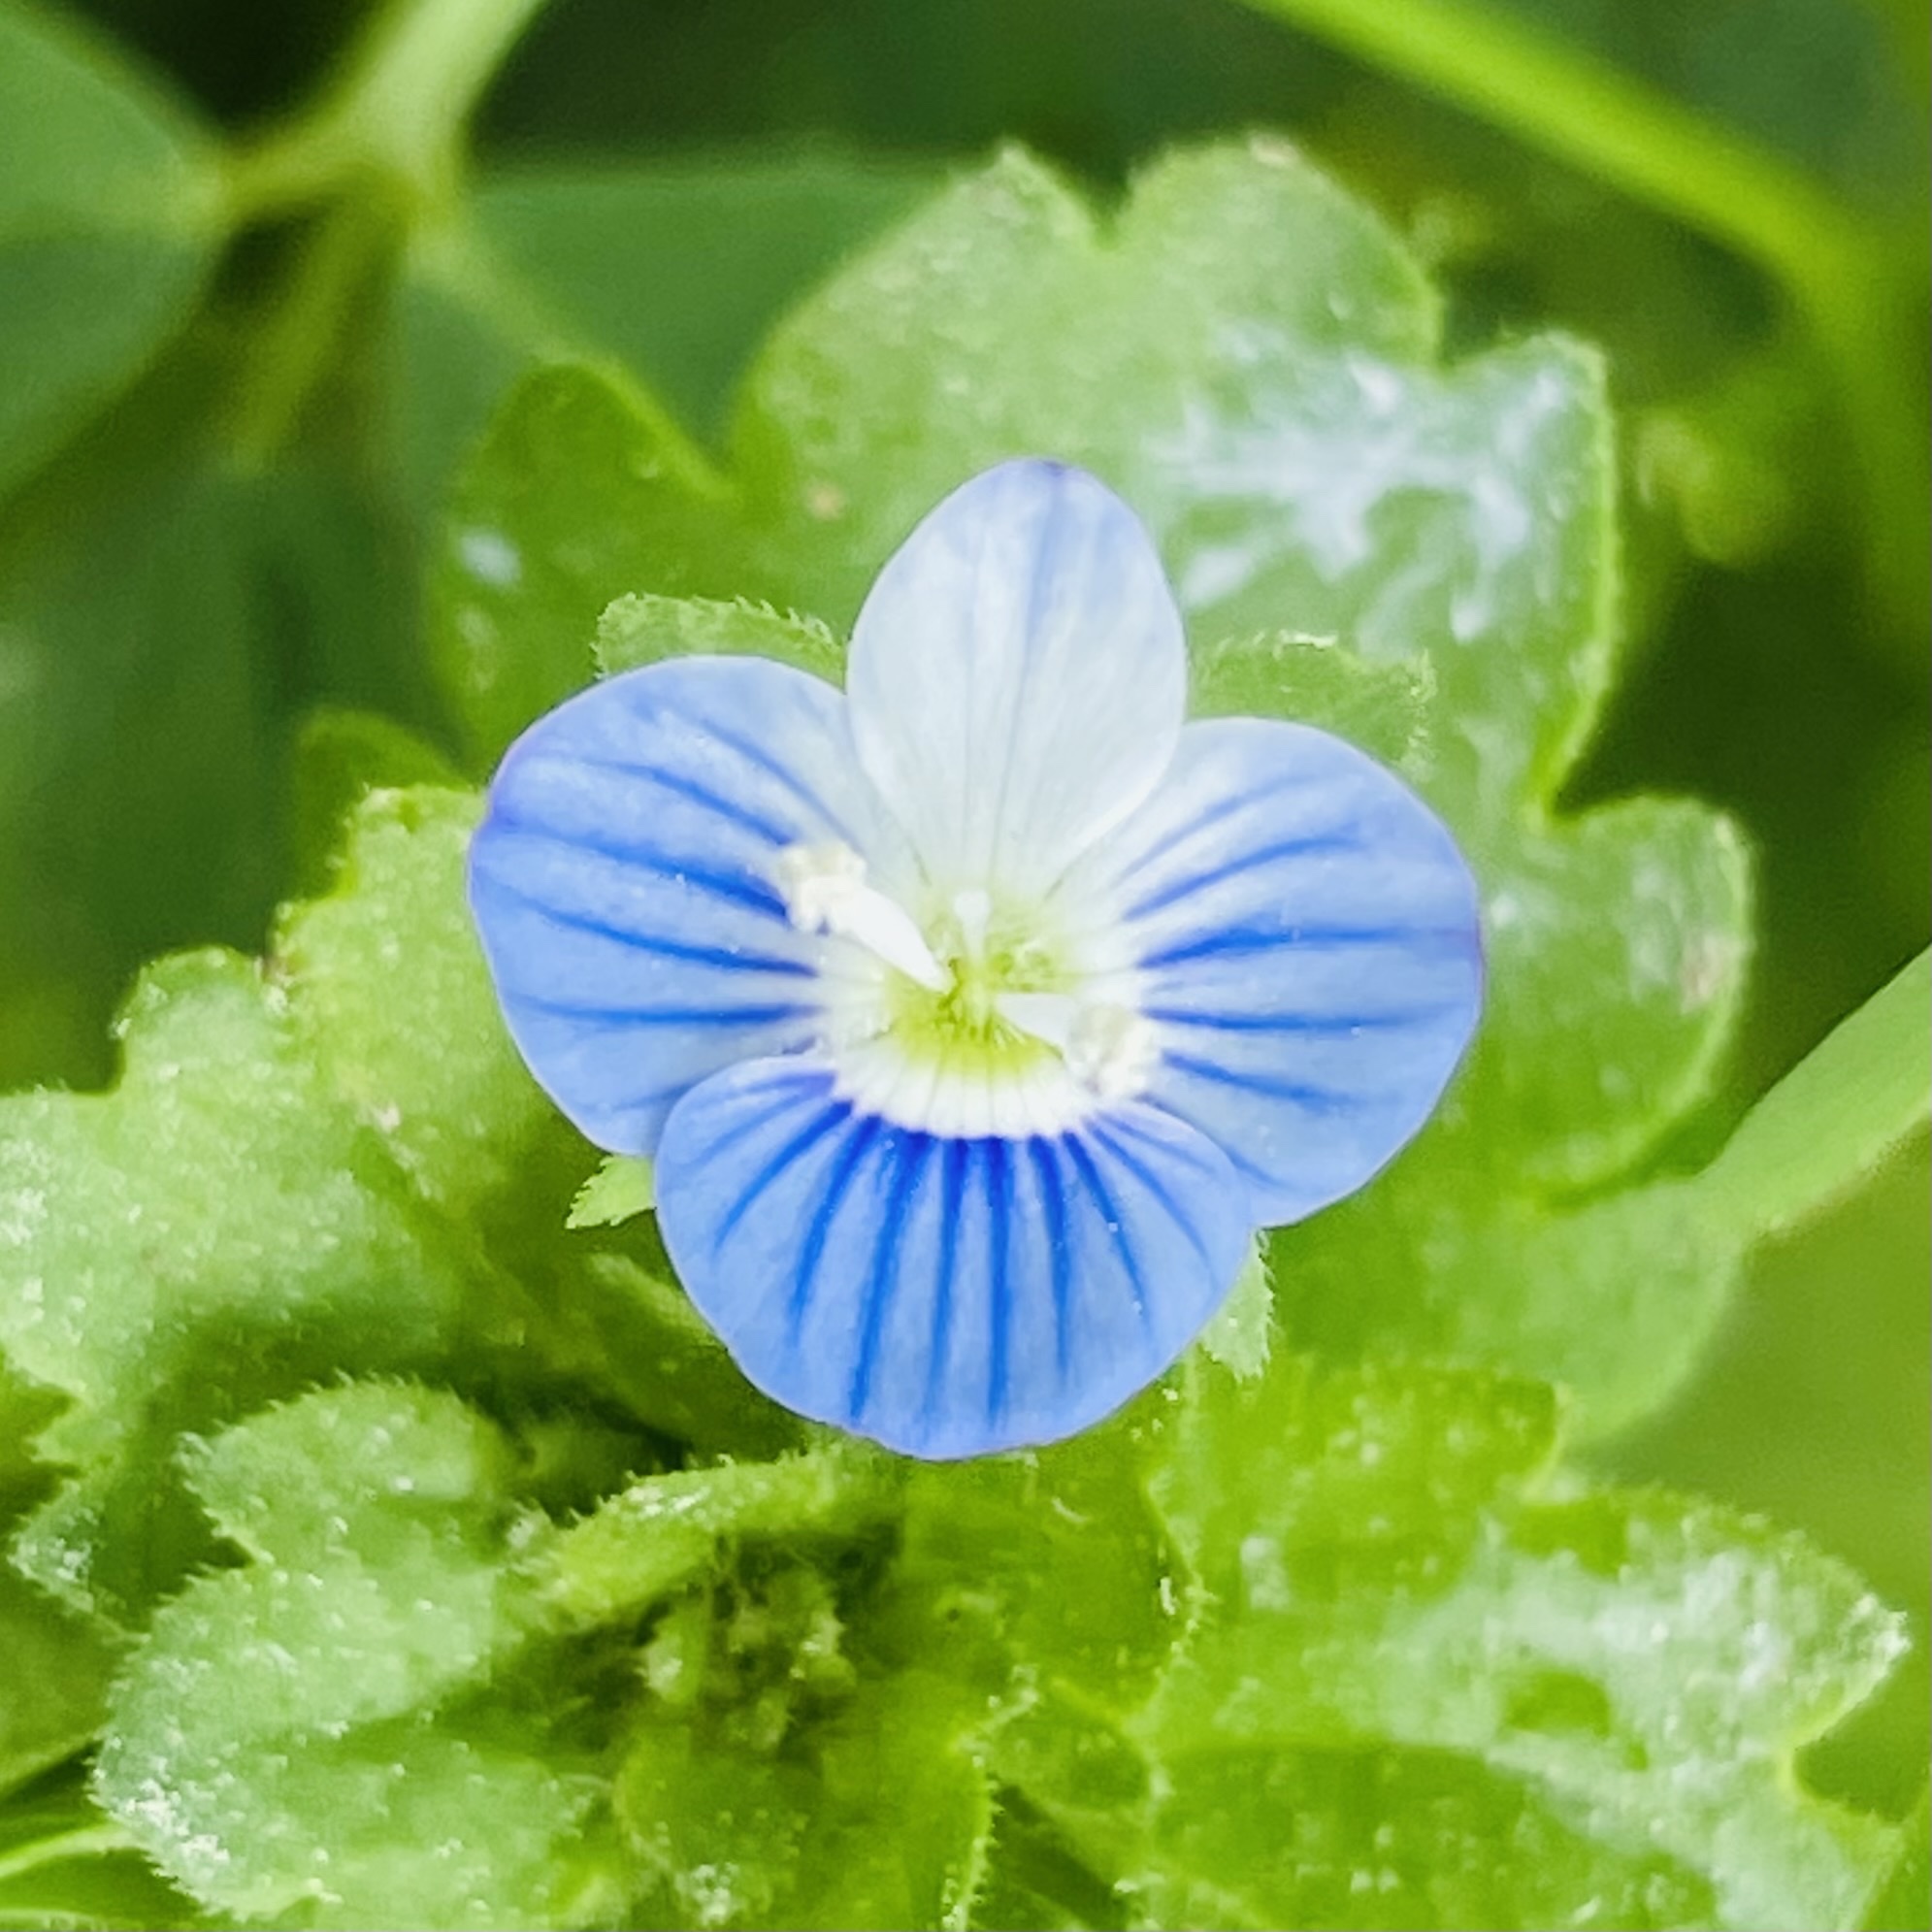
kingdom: Plantae
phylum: Tracheophyta
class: Magnoliopsida
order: Lamiales
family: Plantaginaceae
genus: Veronica
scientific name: Veronica persica
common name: Common field-speedwell
